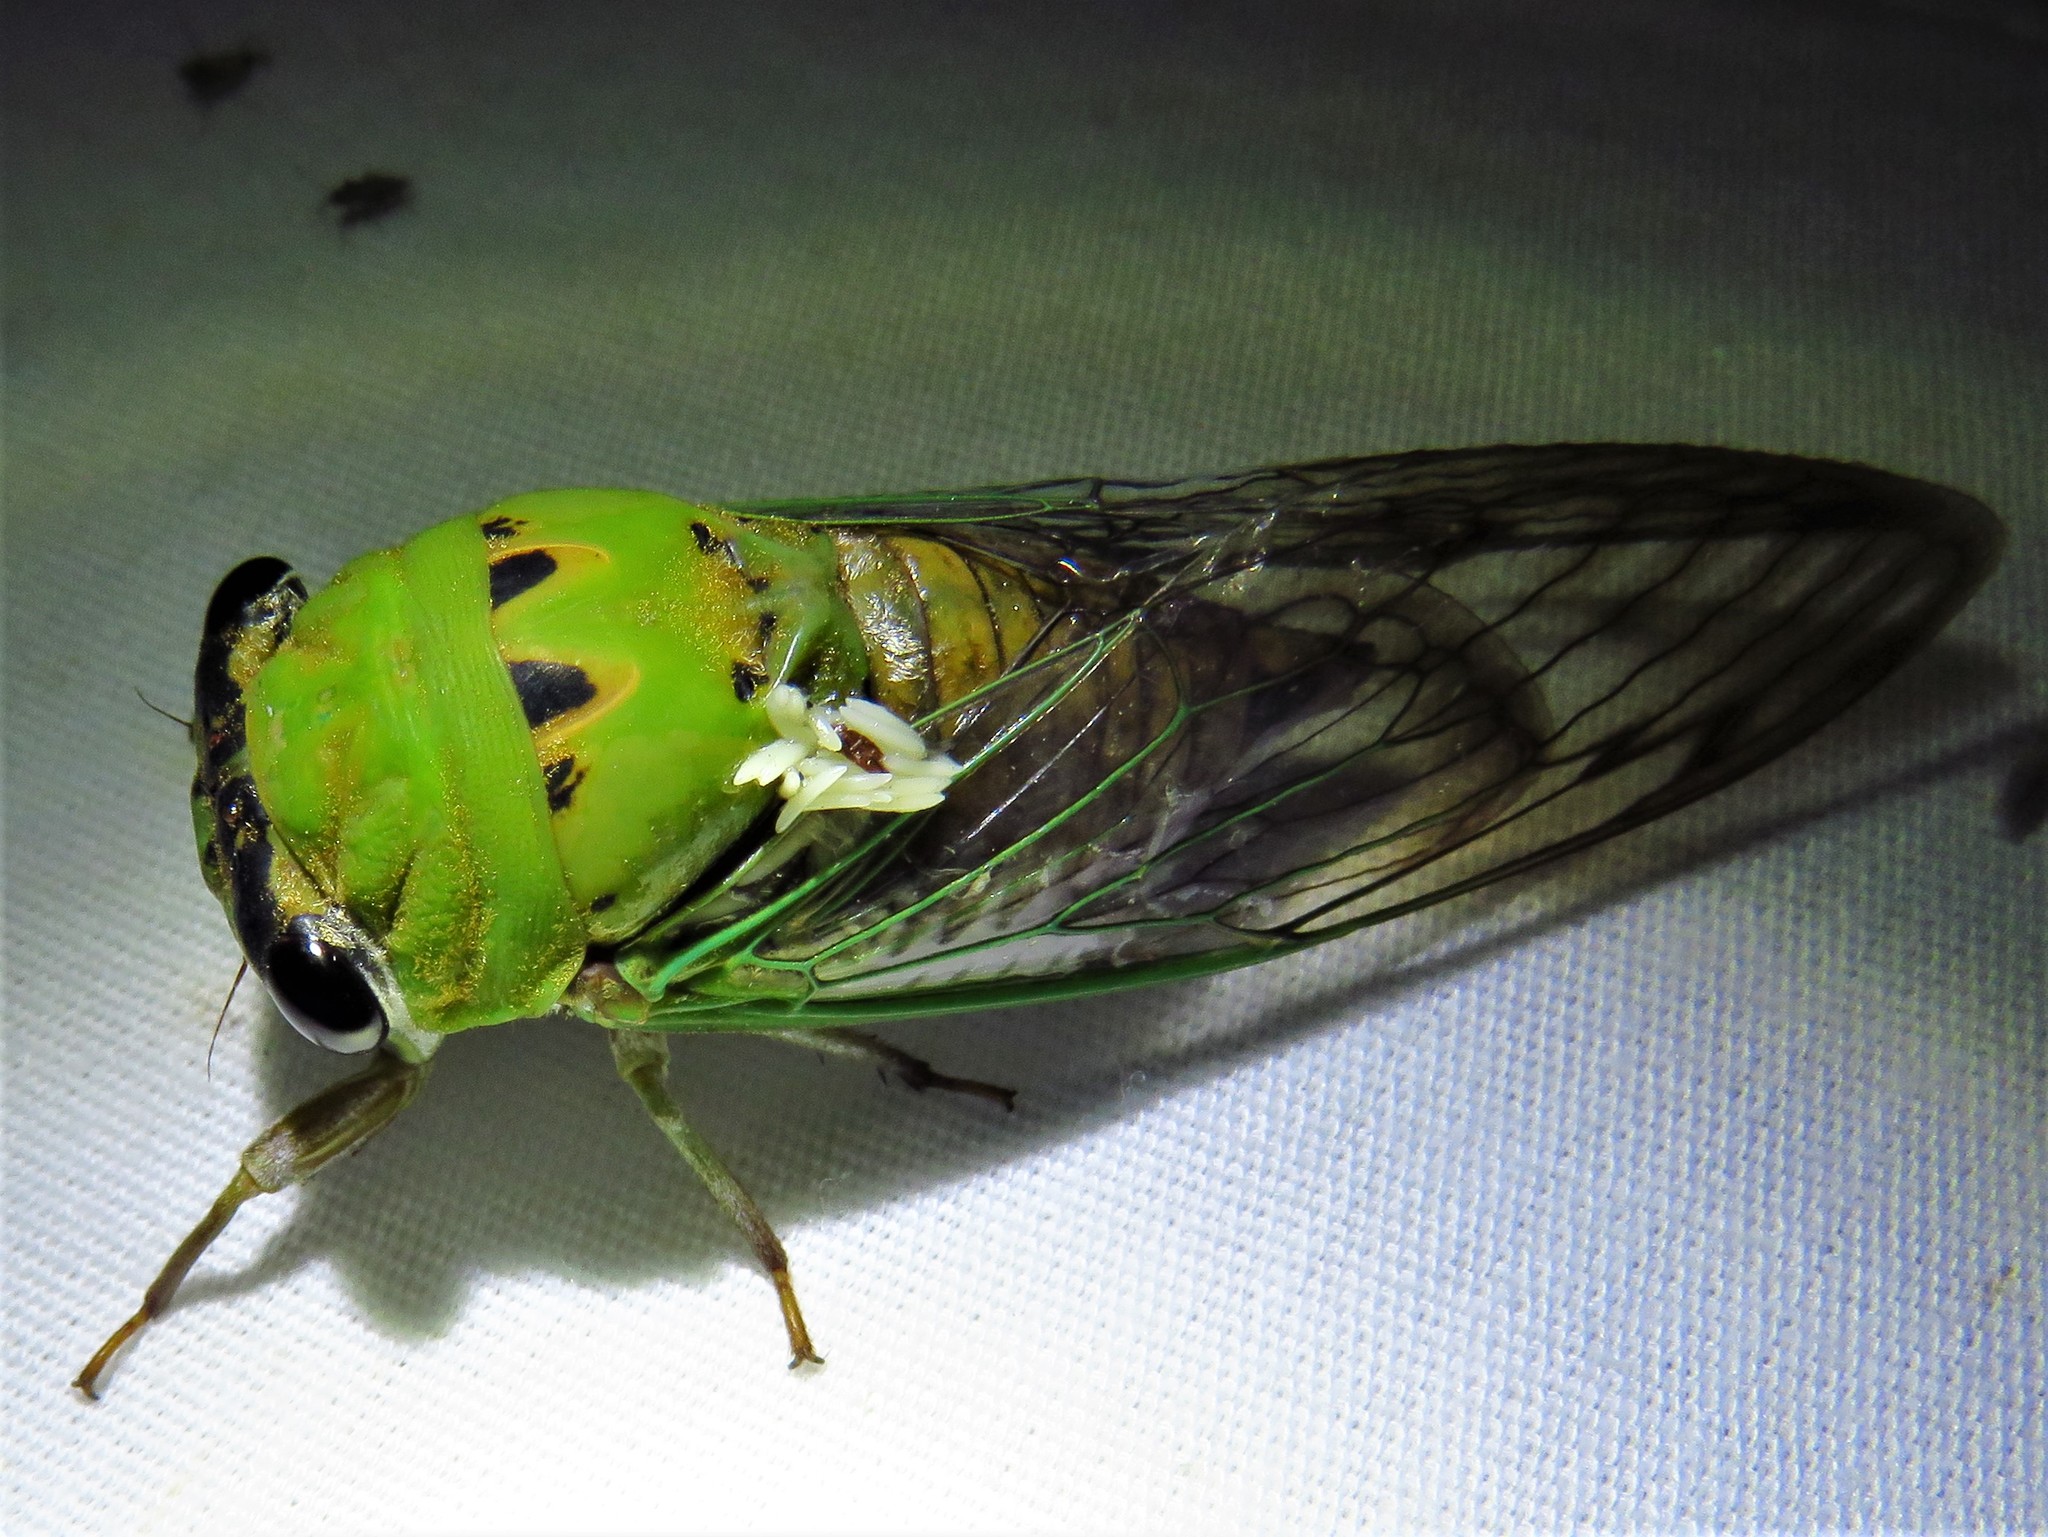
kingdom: Animalia
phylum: Arthropoda
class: Insecta
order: Hemiptera
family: Cicadidae
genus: Neotibicen
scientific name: Neotibicen superbus
